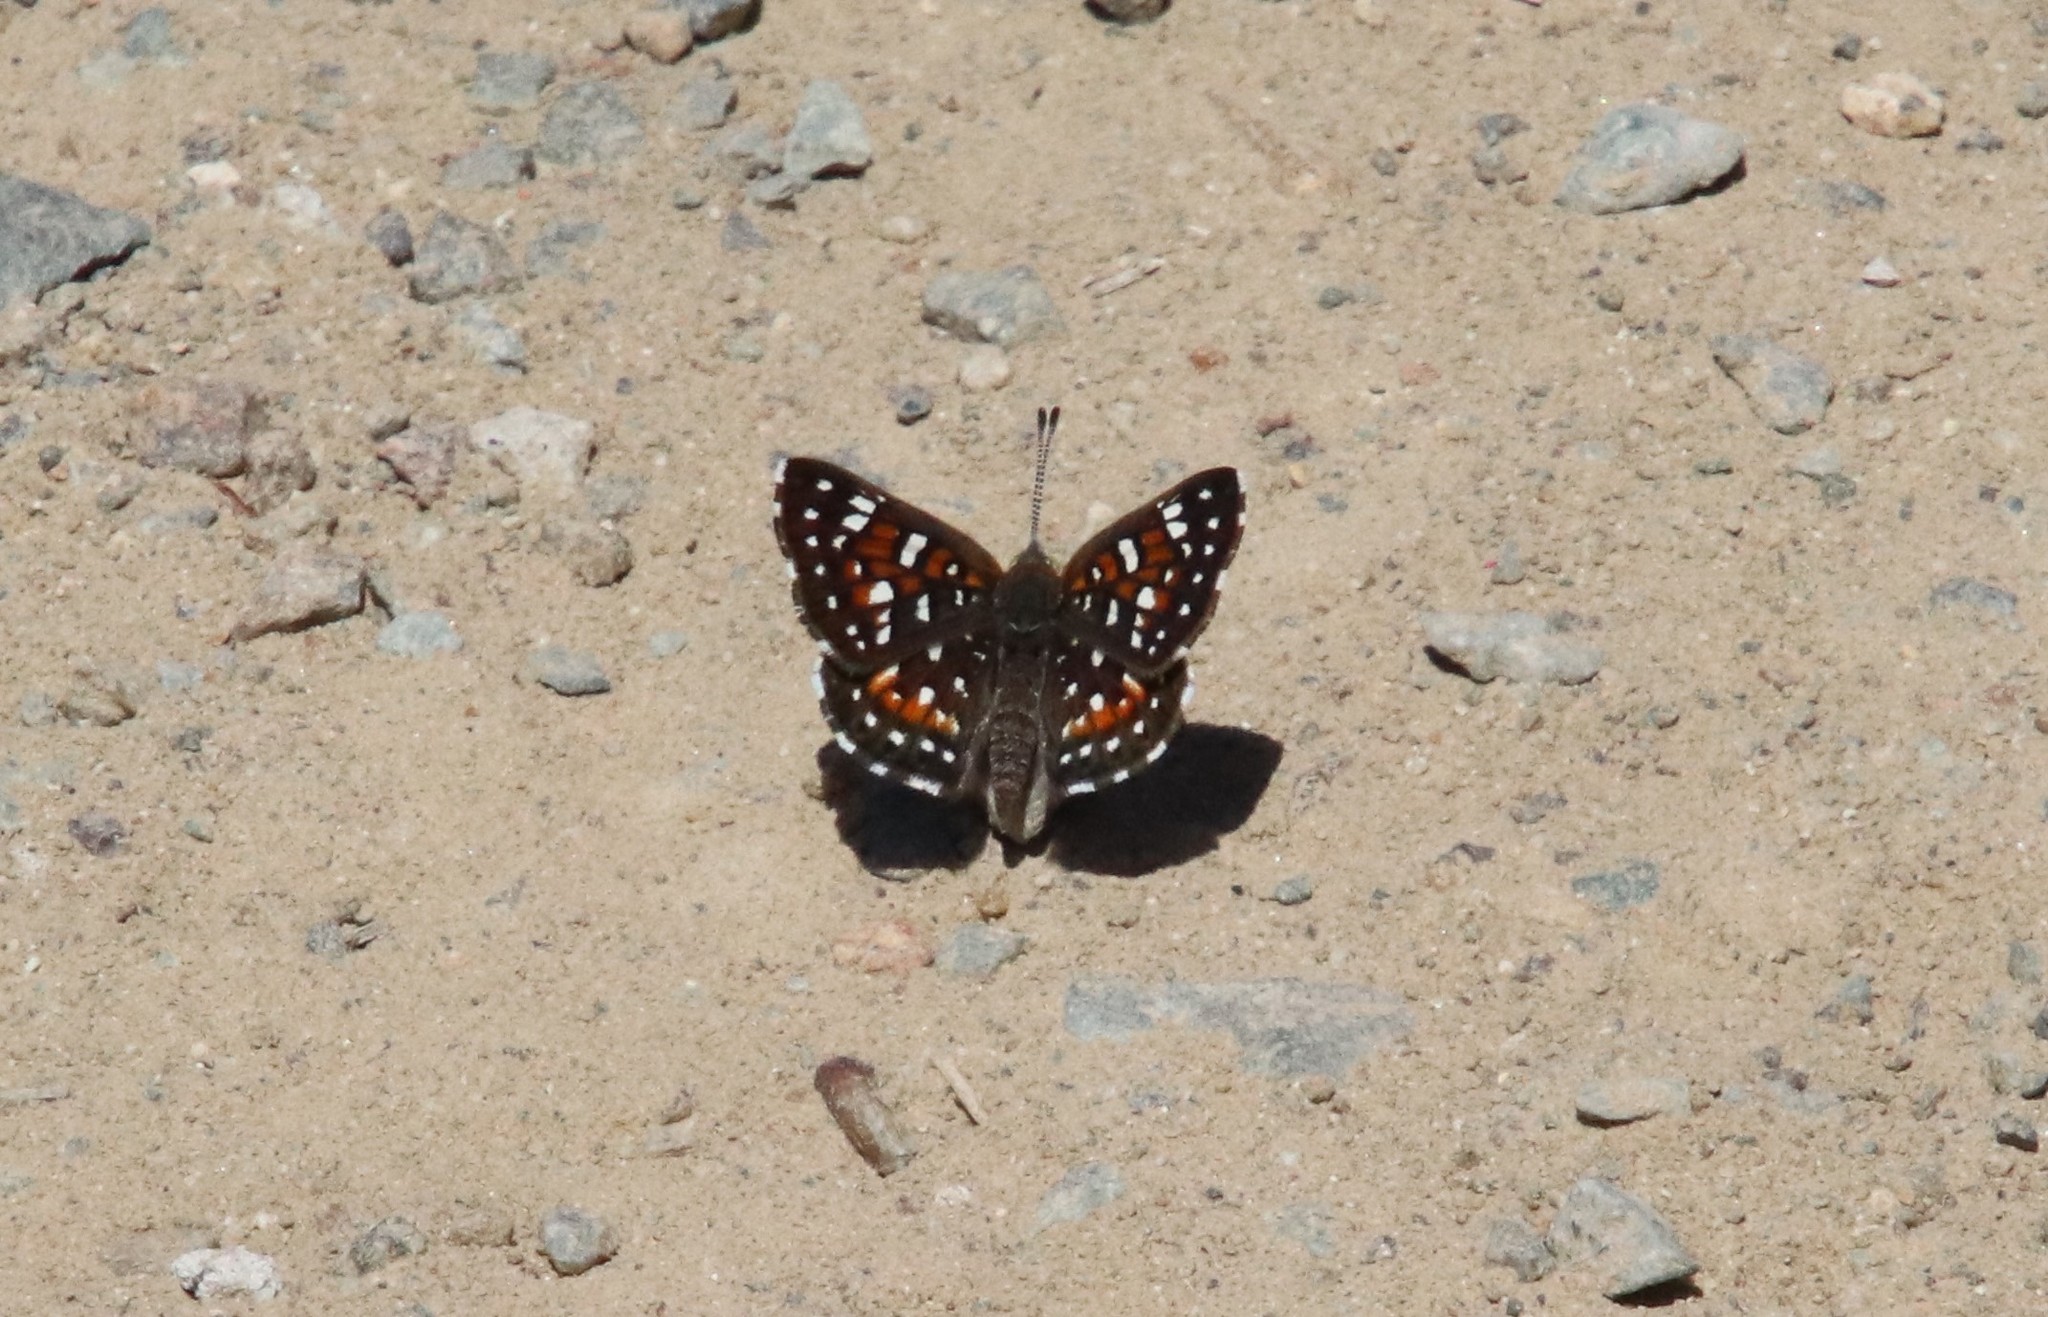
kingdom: Animalia
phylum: Arthropoda
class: Insecta
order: Lepidoptera
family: Riodinidae
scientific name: Riodinidae
